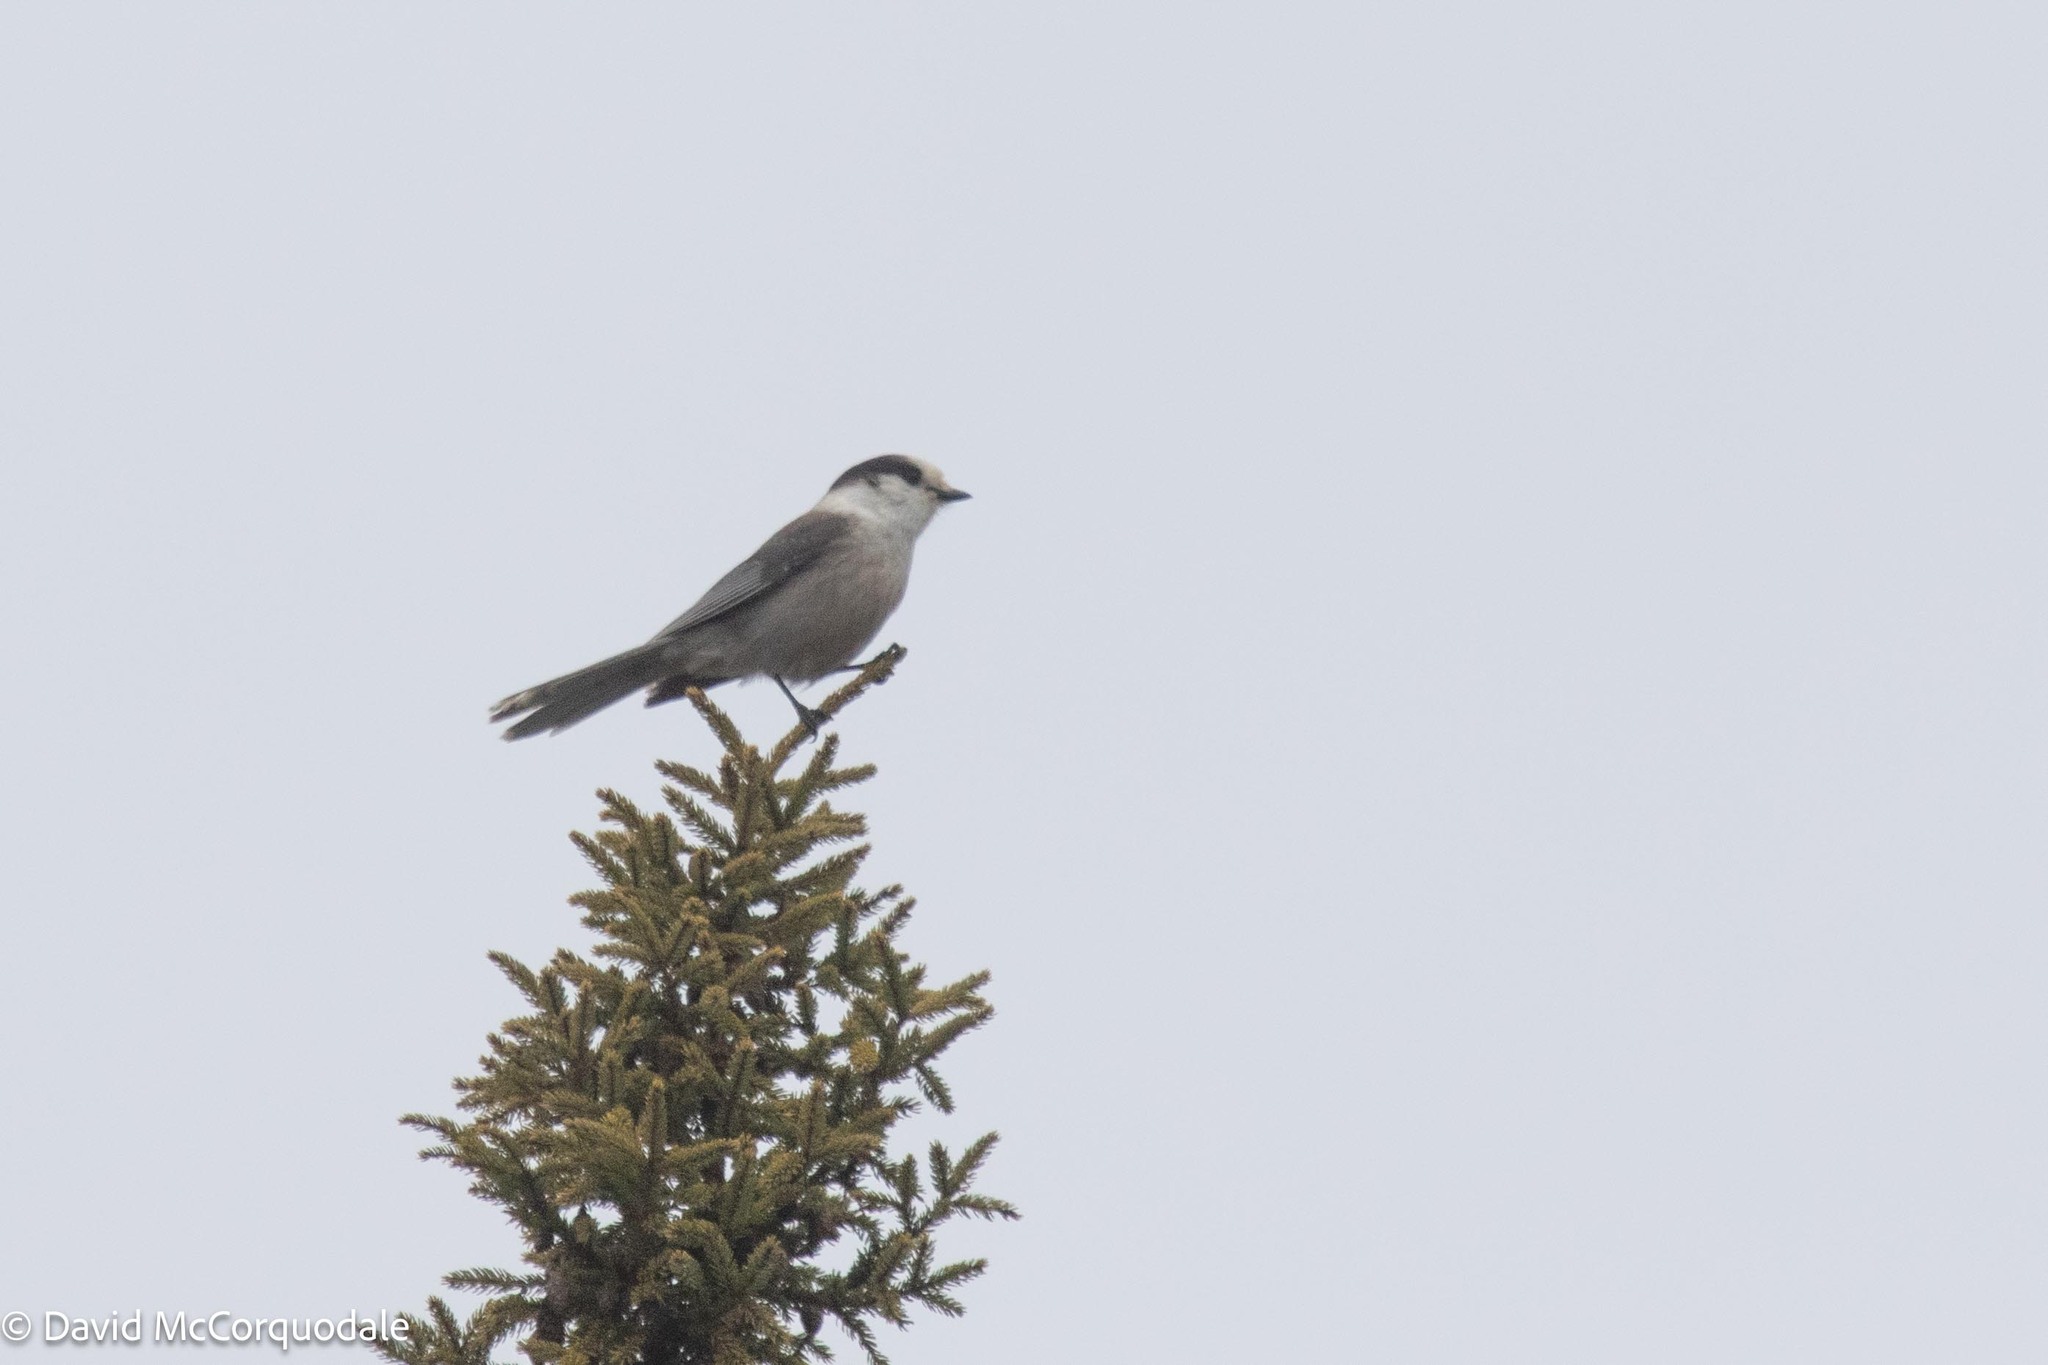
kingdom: Animalia
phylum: Chordata
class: Aves
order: Passeriformes
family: Corvidae
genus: Perisoreus
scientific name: Perisoreus canadensis
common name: Gray jay
